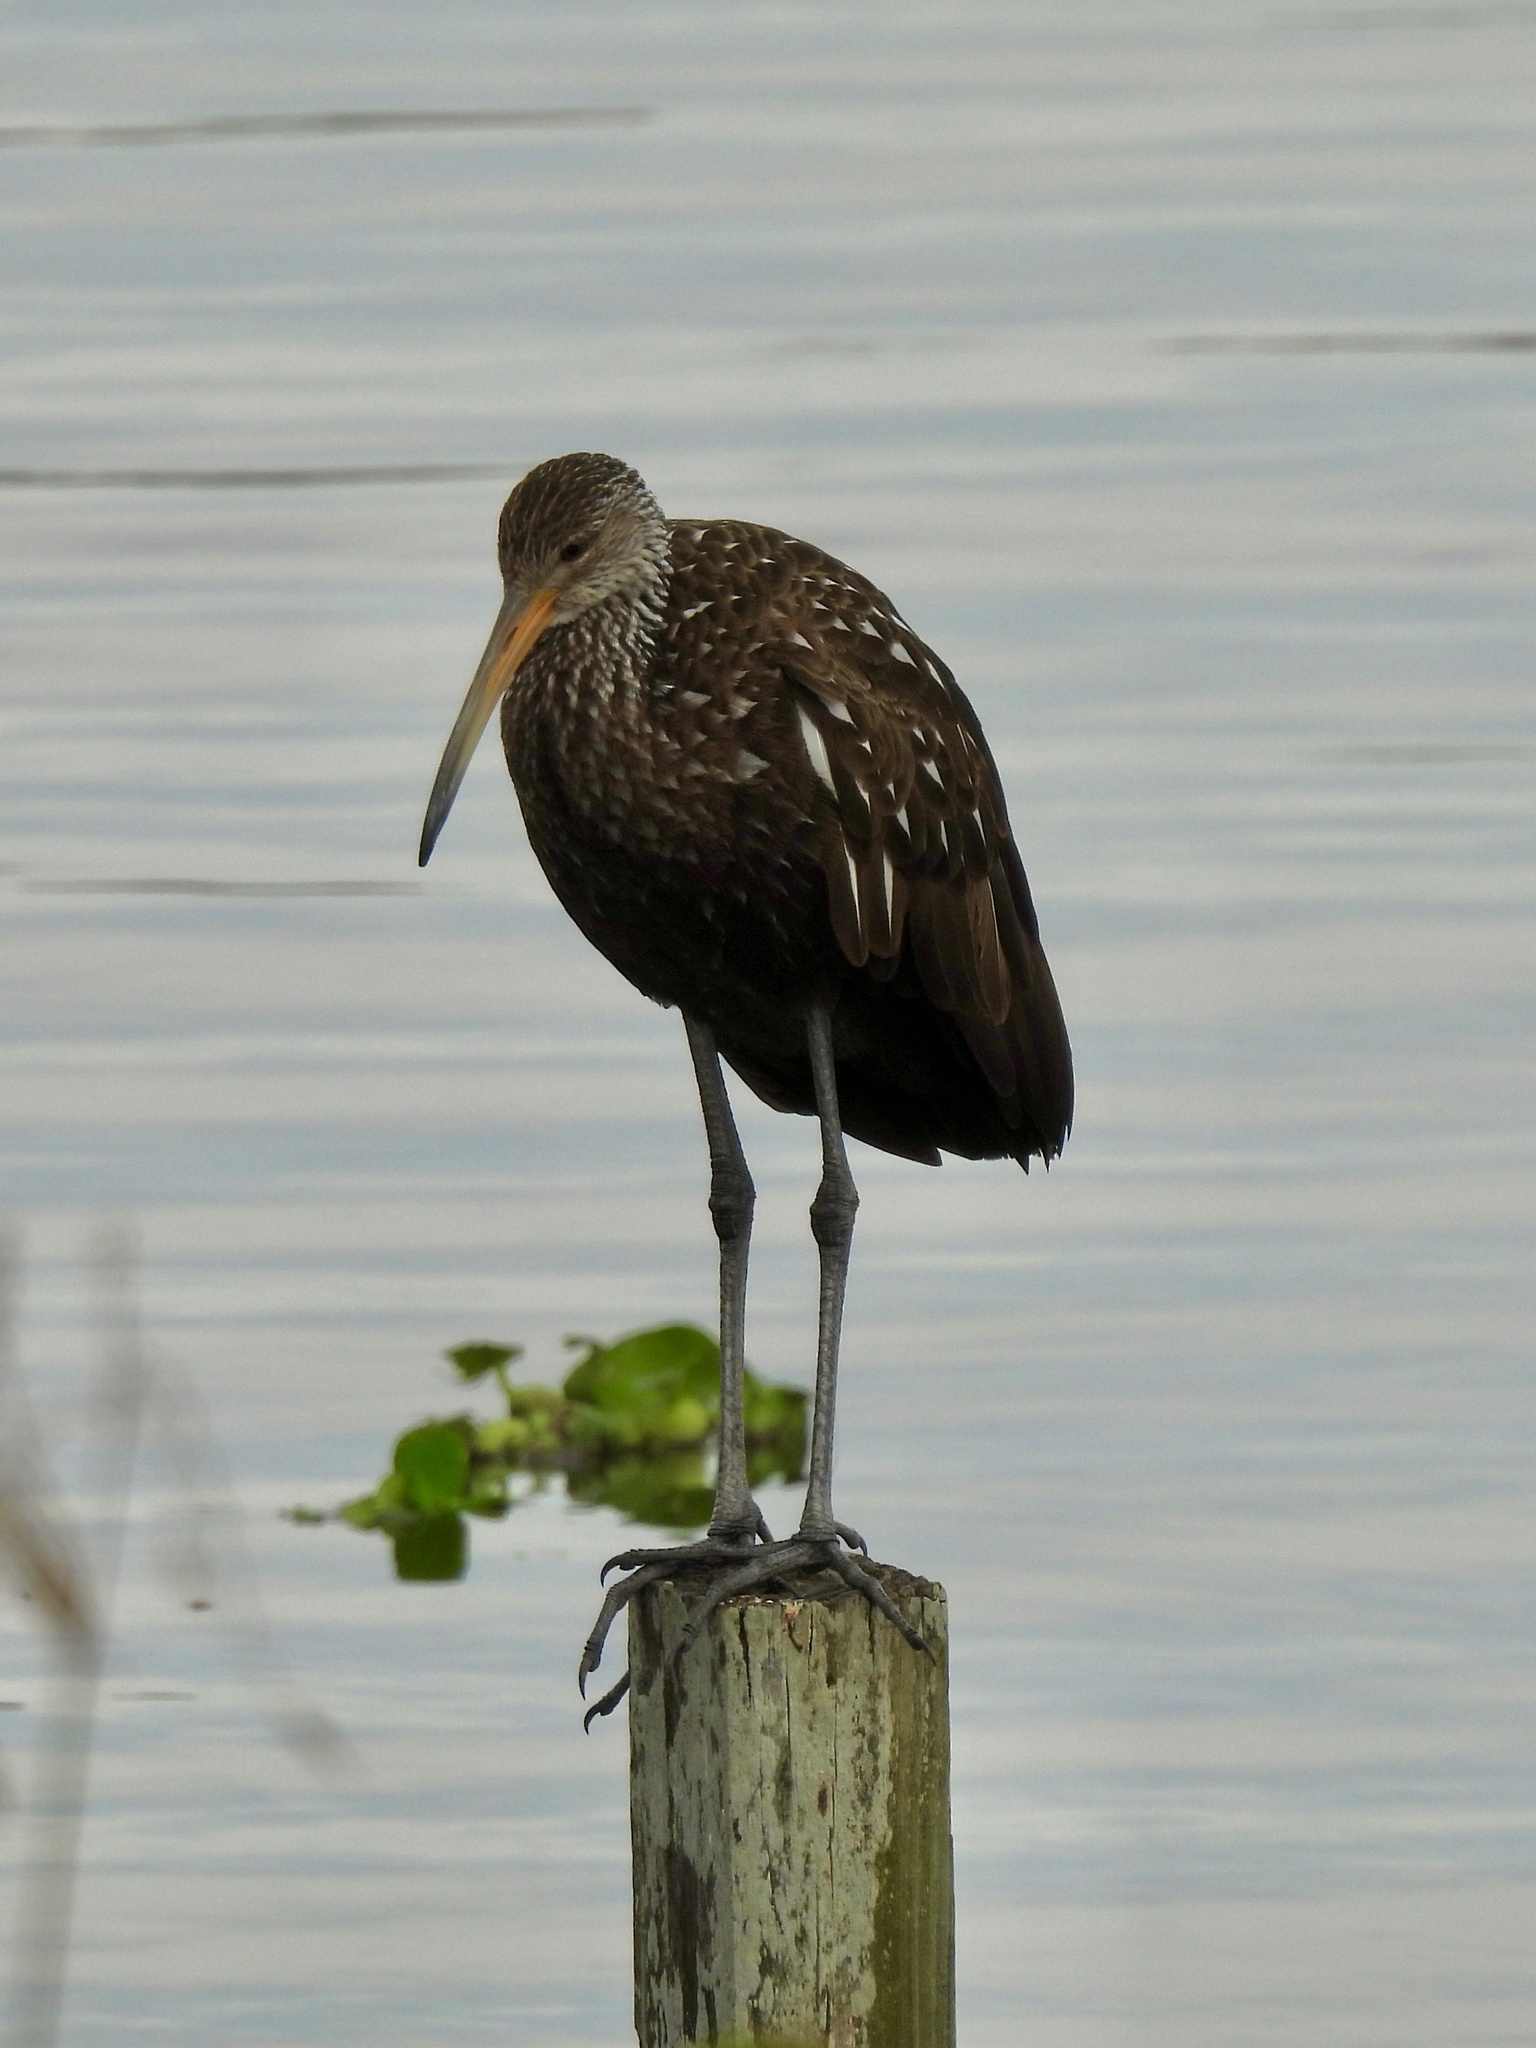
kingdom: Animalia
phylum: Chordata
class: Aves
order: Gruiformes
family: Aramidae
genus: Aramus
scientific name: Aramus guarauna
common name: Limpkin
